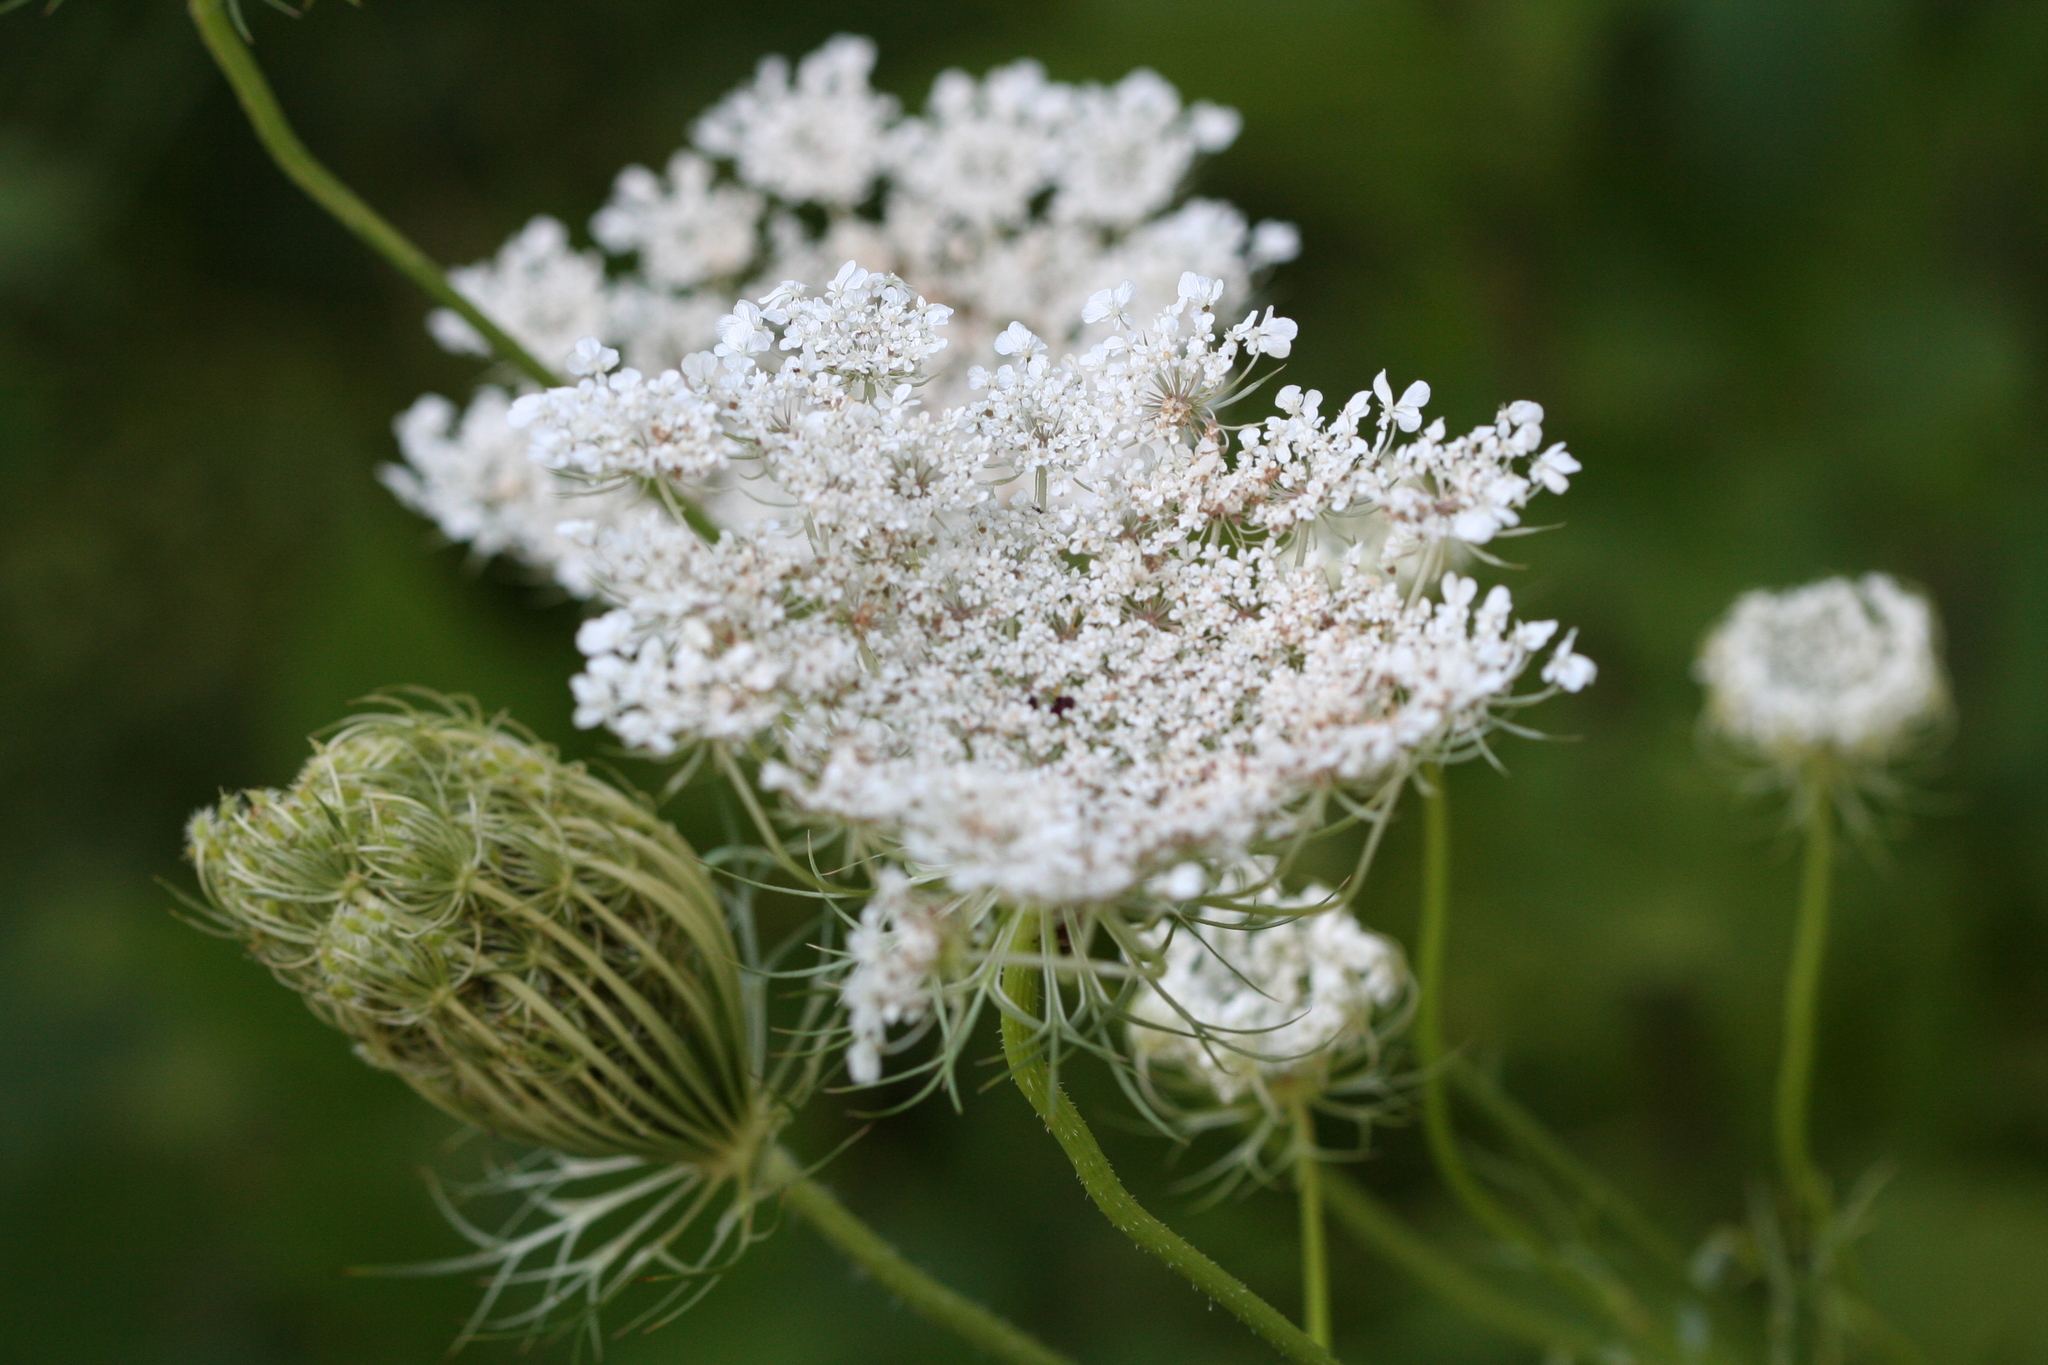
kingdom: Plantae
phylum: Tracheophyta
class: Magnoliopsida
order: Apiales
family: Apiaceae
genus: Daucus
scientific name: Daucus carota
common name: Wild carrot
